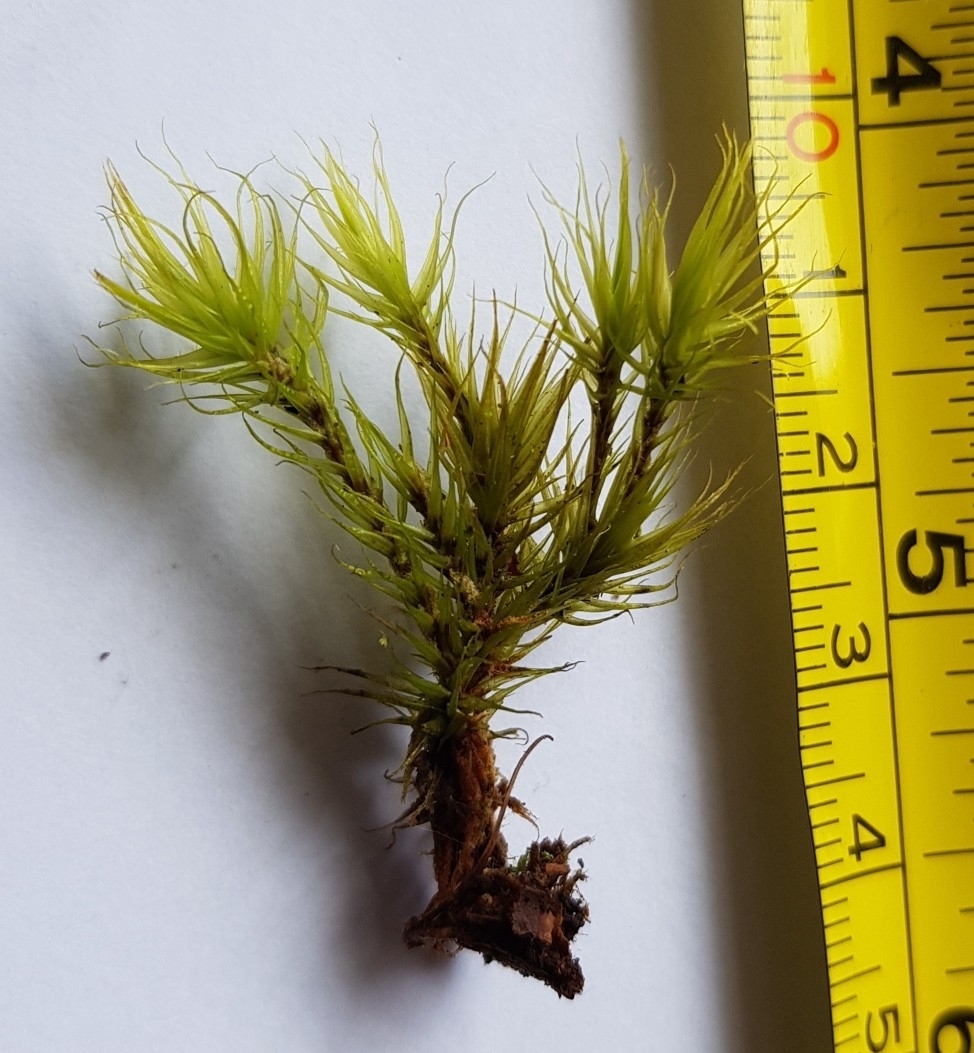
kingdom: Plantae
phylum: Bryophyta
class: Bryopsida
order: Dicranales
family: Dicranaceae
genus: Dicranum
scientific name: Dicranum scoparium
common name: Broom fork-moss
